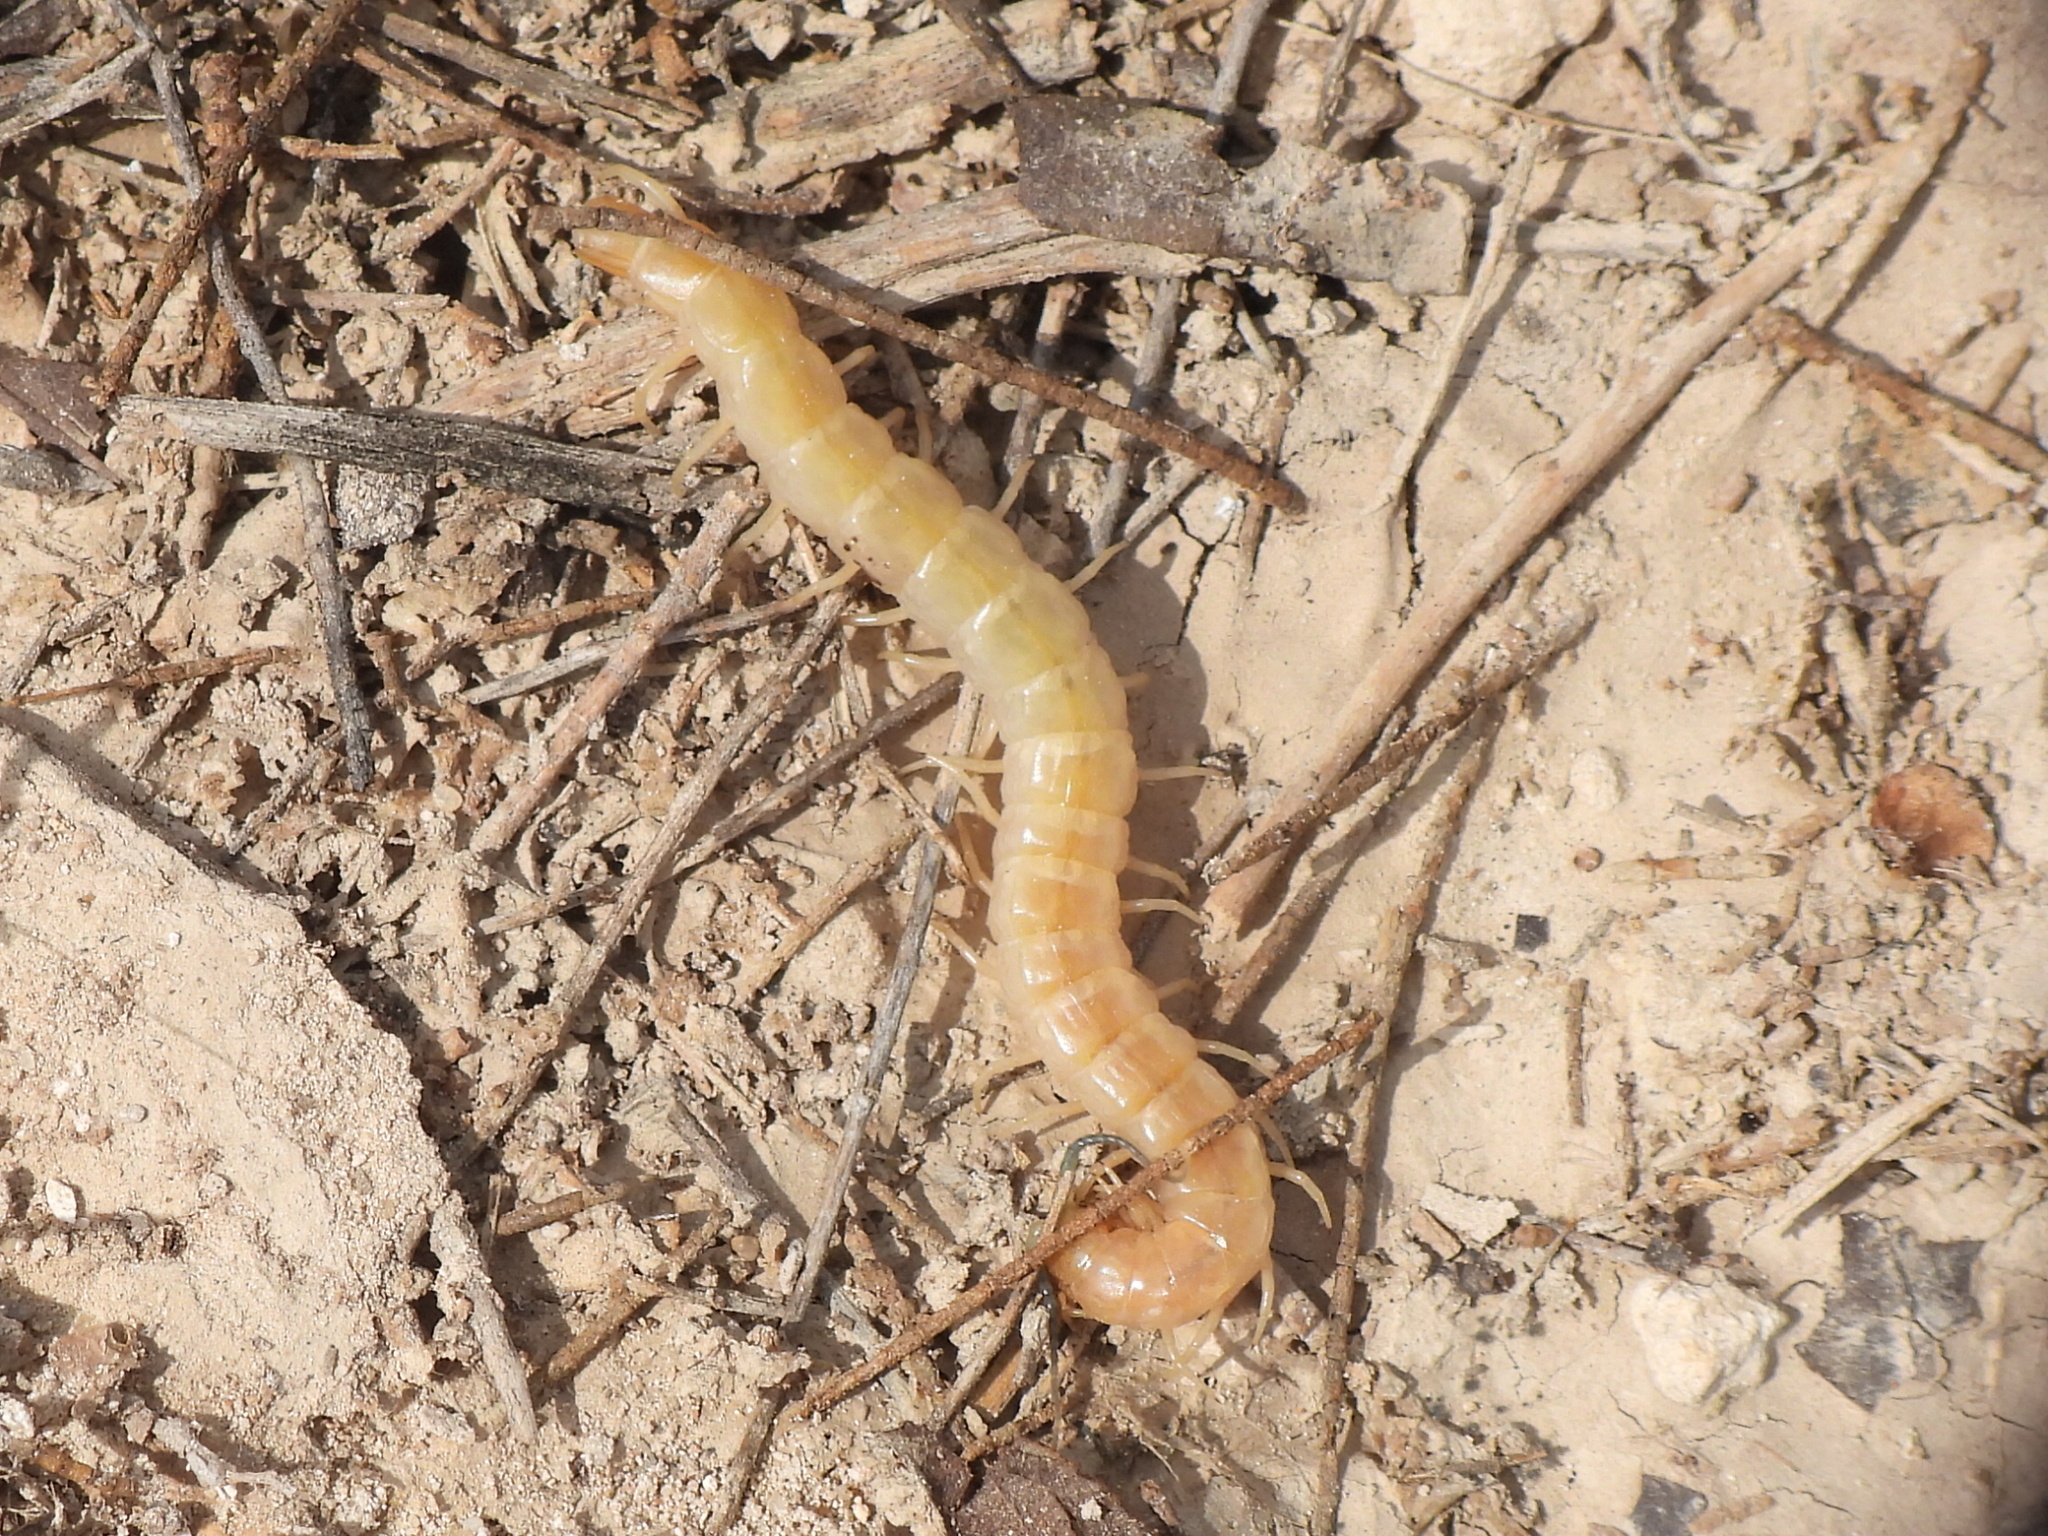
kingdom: Animalia
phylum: Arthropoda
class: Chilopoda
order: Scolopendromorpha
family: Scolopendridae
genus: Scolopendra
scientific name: Scolopendra canidens
